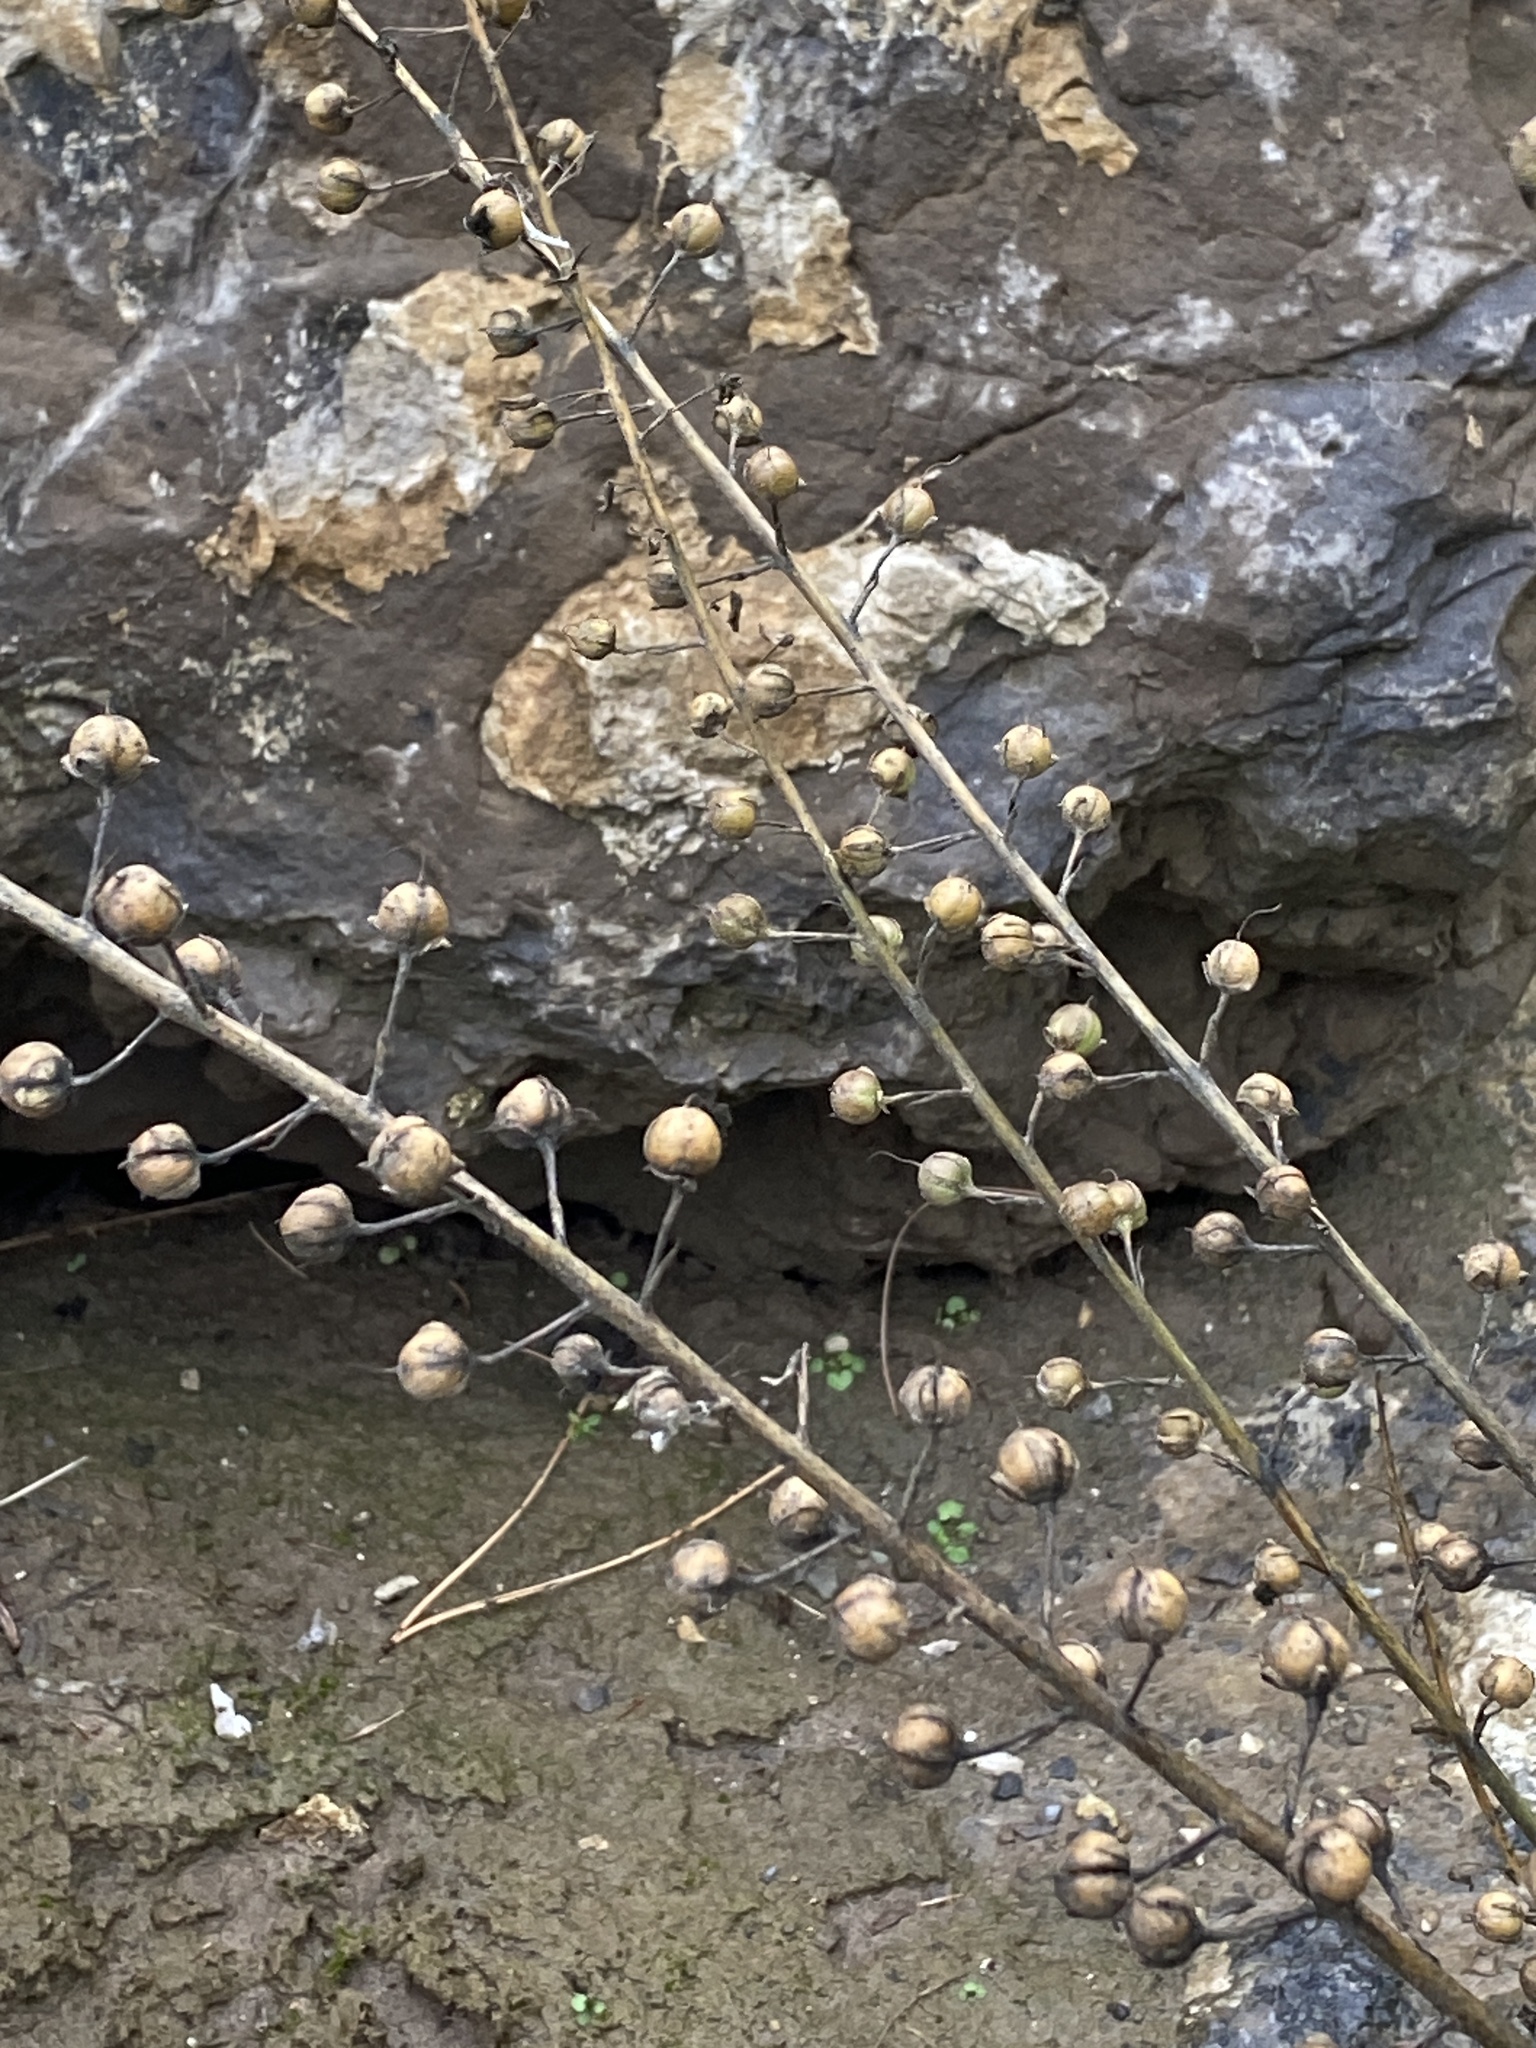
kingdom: Plantae
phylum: Tracheophyta
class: Magnoliopsida
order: Lamiales
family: Scrophulariaceae
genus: Verbascum
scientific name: Verbascum blattaria
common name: Moth mullein
